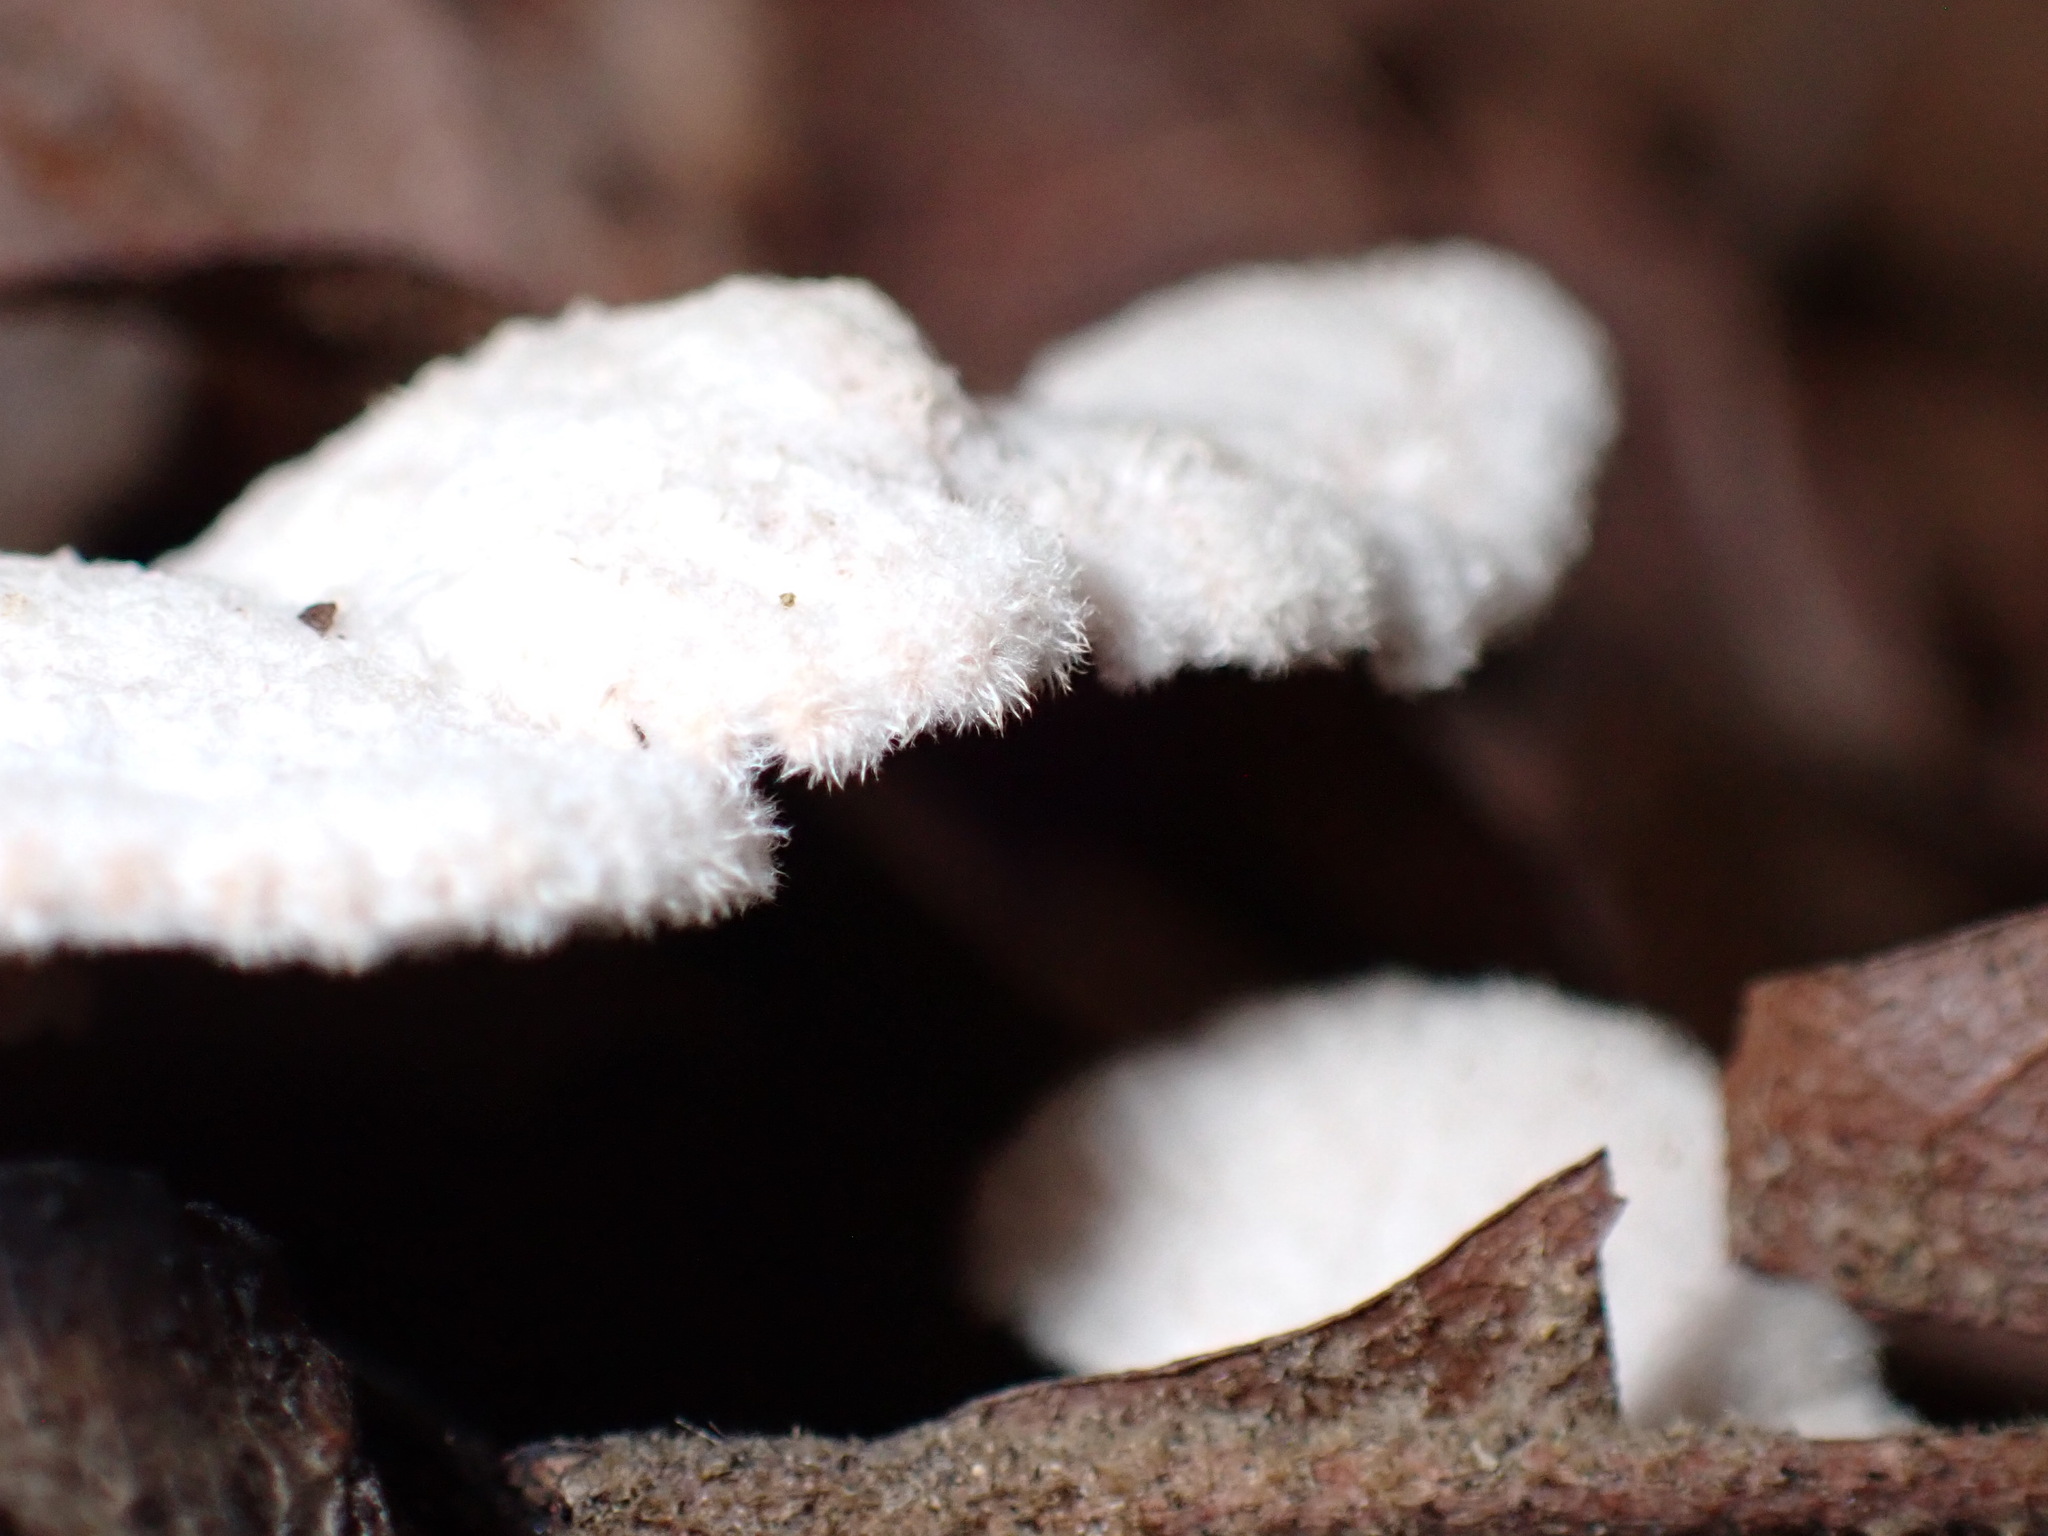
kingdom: Fungi
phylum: Basidiomycota
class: Agaricomycetes
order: Agaricales
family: Schizophyllaceae
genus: Schizophyllum
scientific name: Schizophyllum commune
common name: Common porecrust
